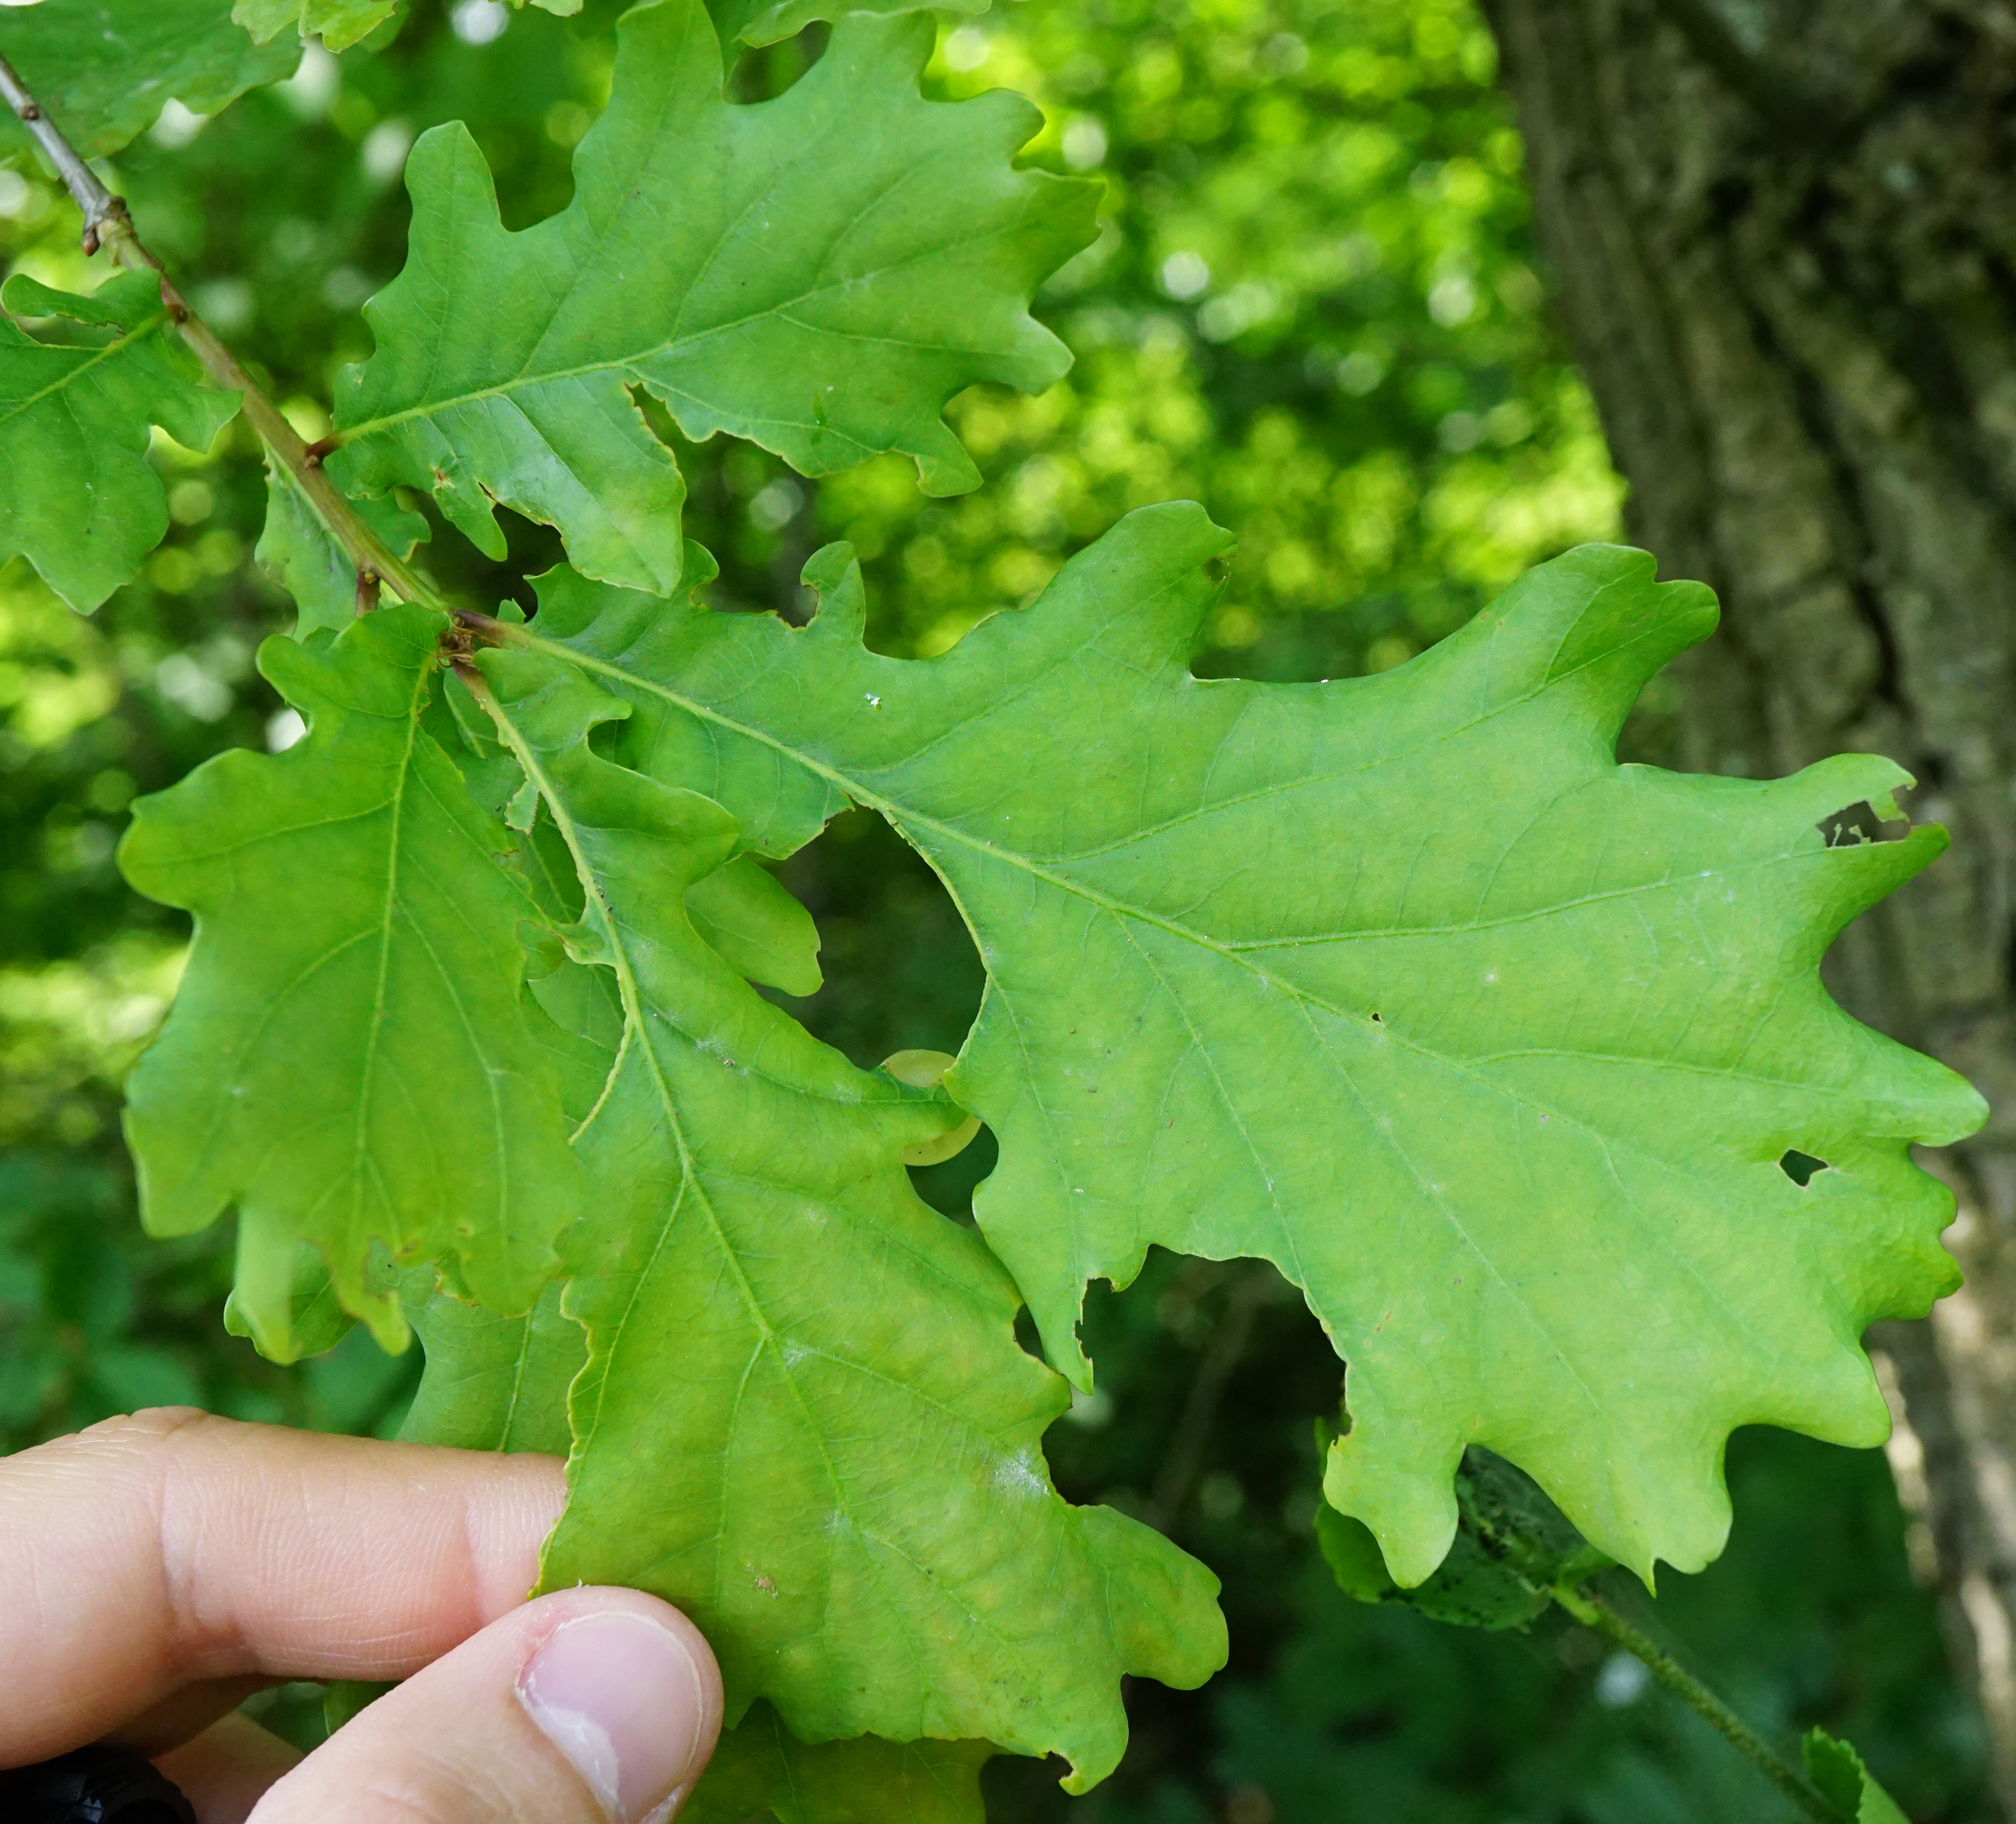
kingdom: Plantae
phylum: Tracheophyta
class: Magnoliopsida
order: Fagales
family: Fagaceae
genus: Quercus
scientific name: Quercus robur
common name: Pedunculate oak
